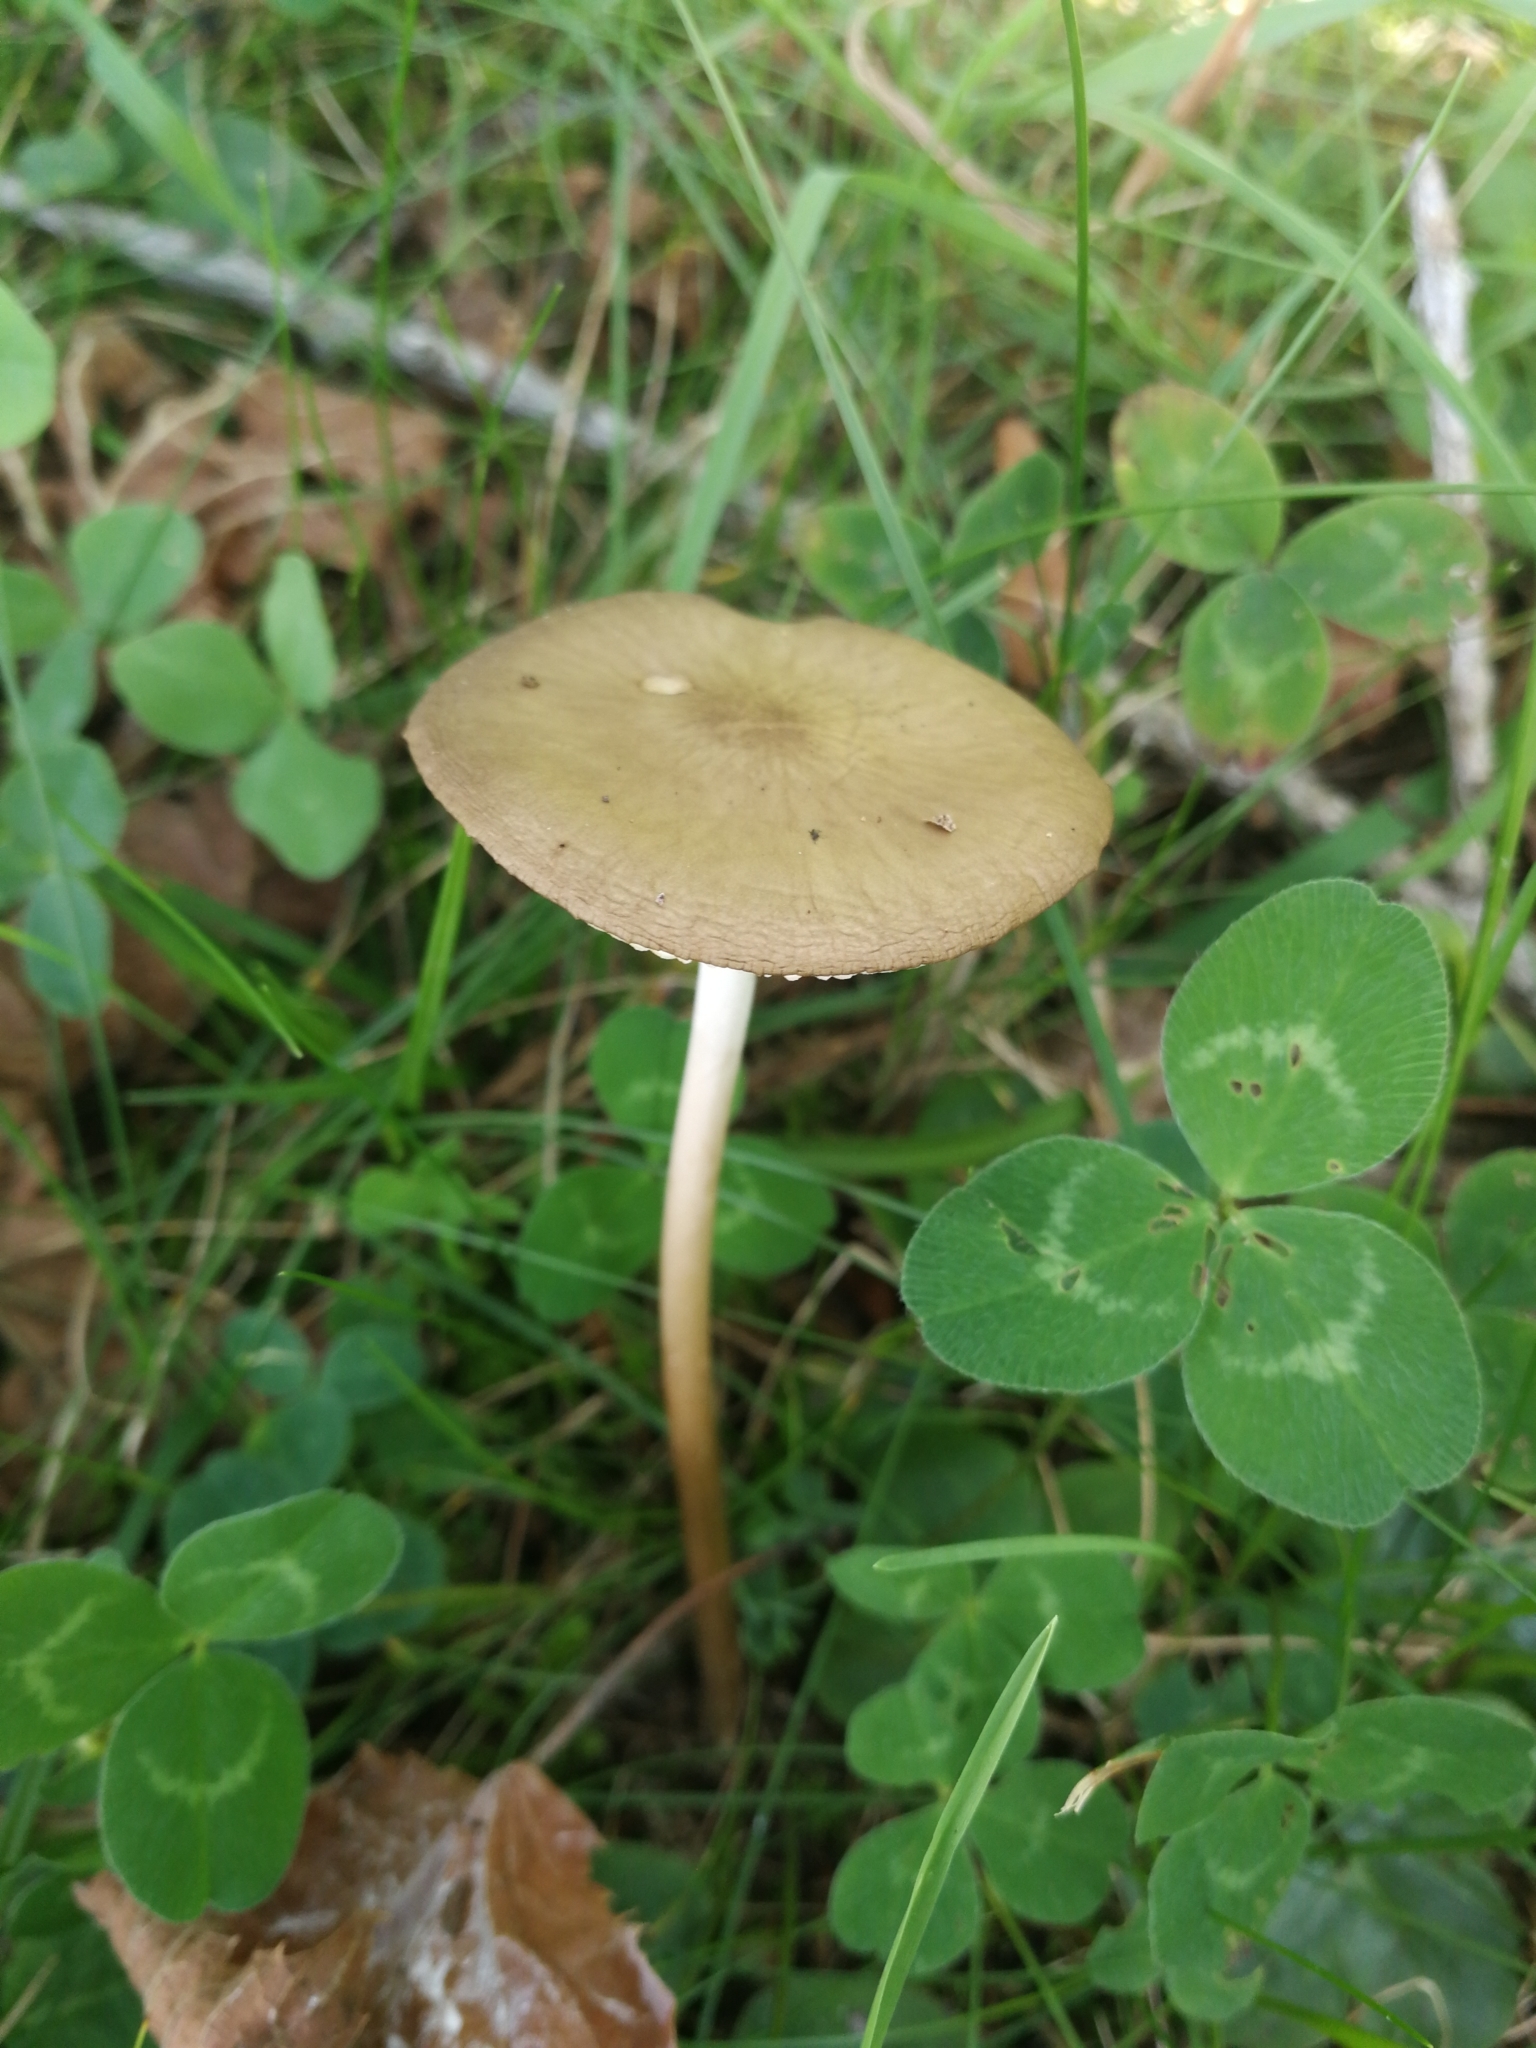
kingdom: Fungi
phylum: Basidiomycota
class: Agaricomycetes
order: Agaricales
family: Physalacriaceae
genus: Hymenopellis
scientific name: Hymenopellis radicata
